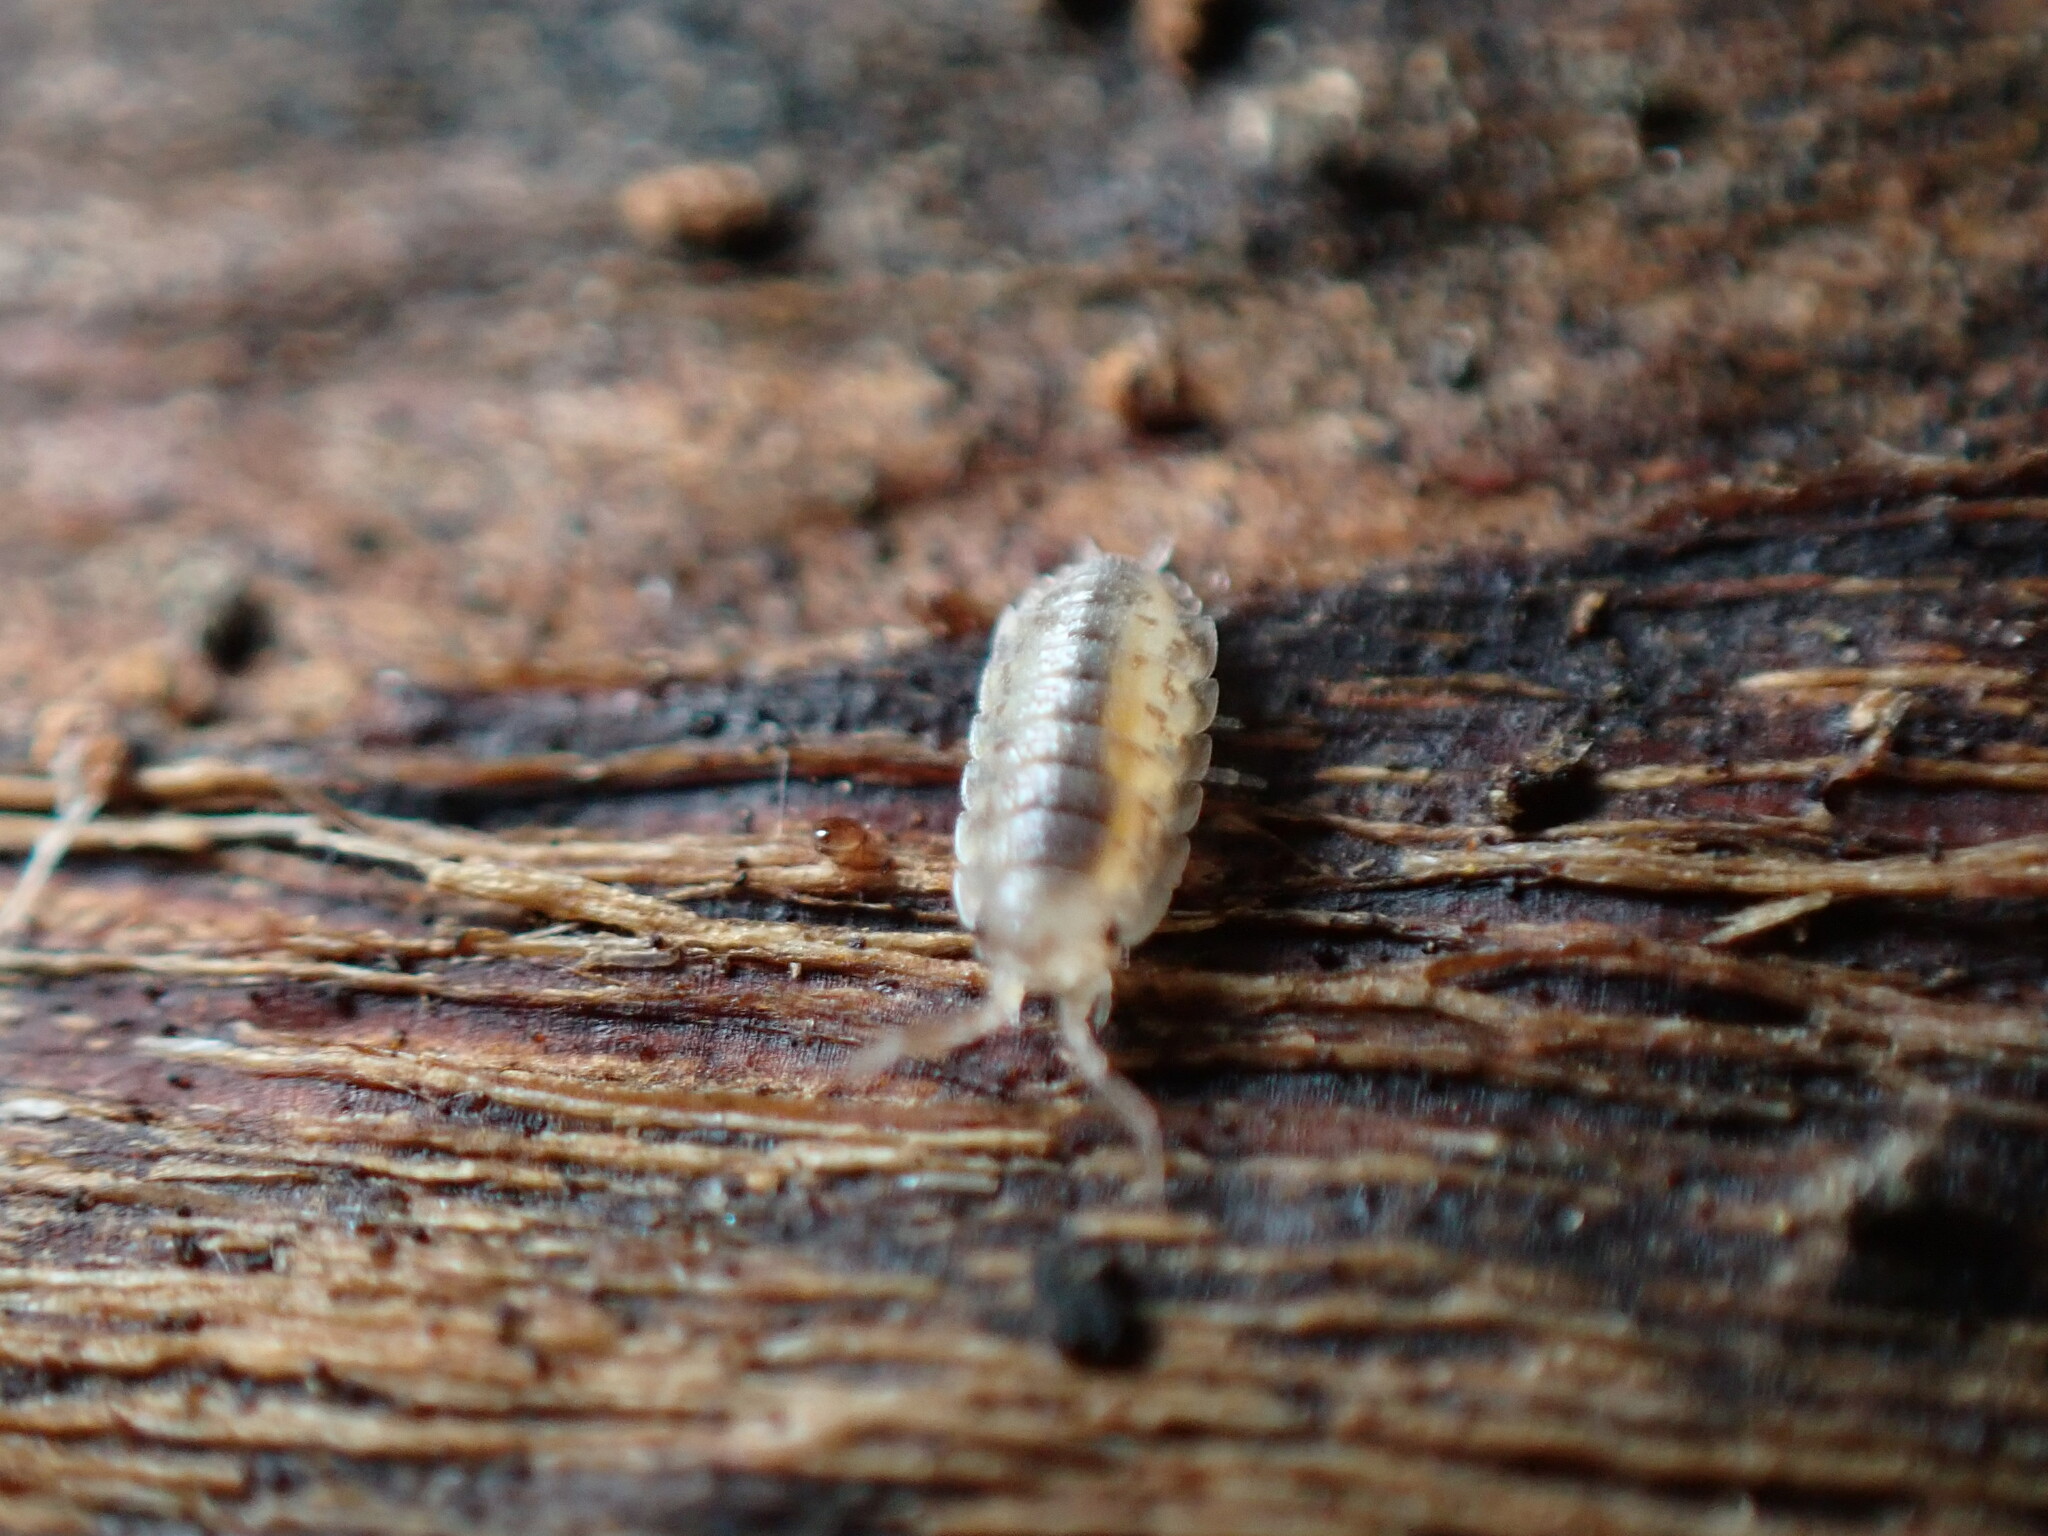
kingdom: Animalia
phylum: Arthropoda
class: Malacostraca
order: Isopoda
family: Porcellionidae
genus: Porcellio
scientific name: Porcellio scaber
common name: Common rough woodlouse
